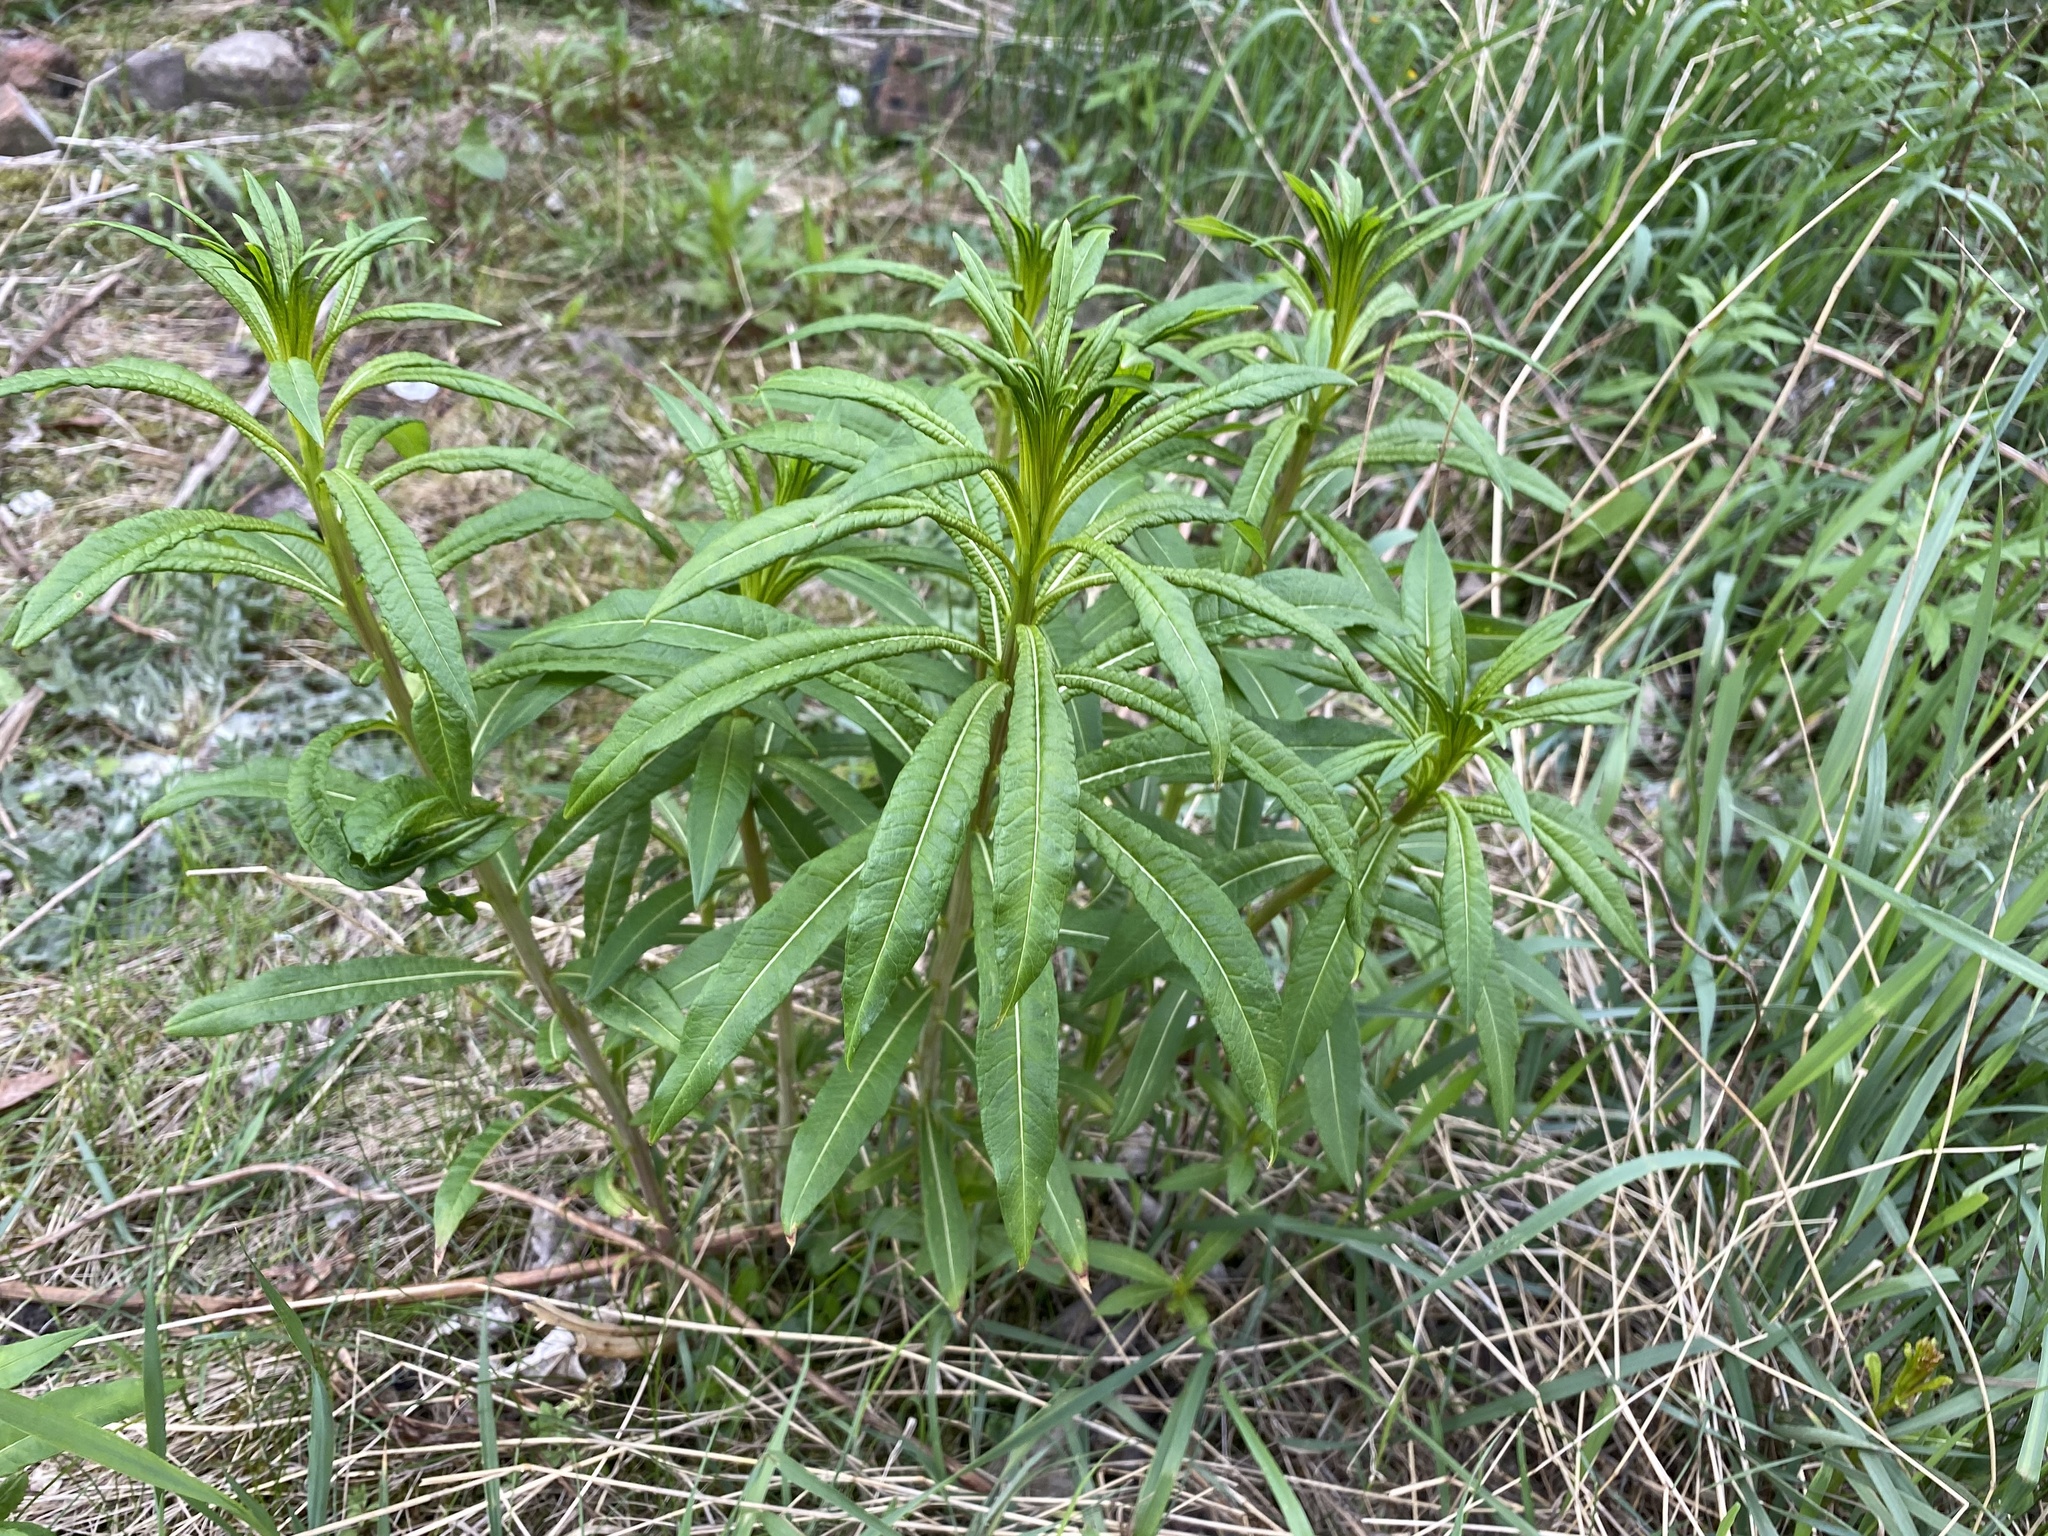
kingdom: Plantae
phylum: Tracheophyta
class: Magnoliopsida
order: Myrtales
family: Onagraceae
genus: Chamaenerion
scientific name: Chamaenerion angustifolium
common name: Fireweed
